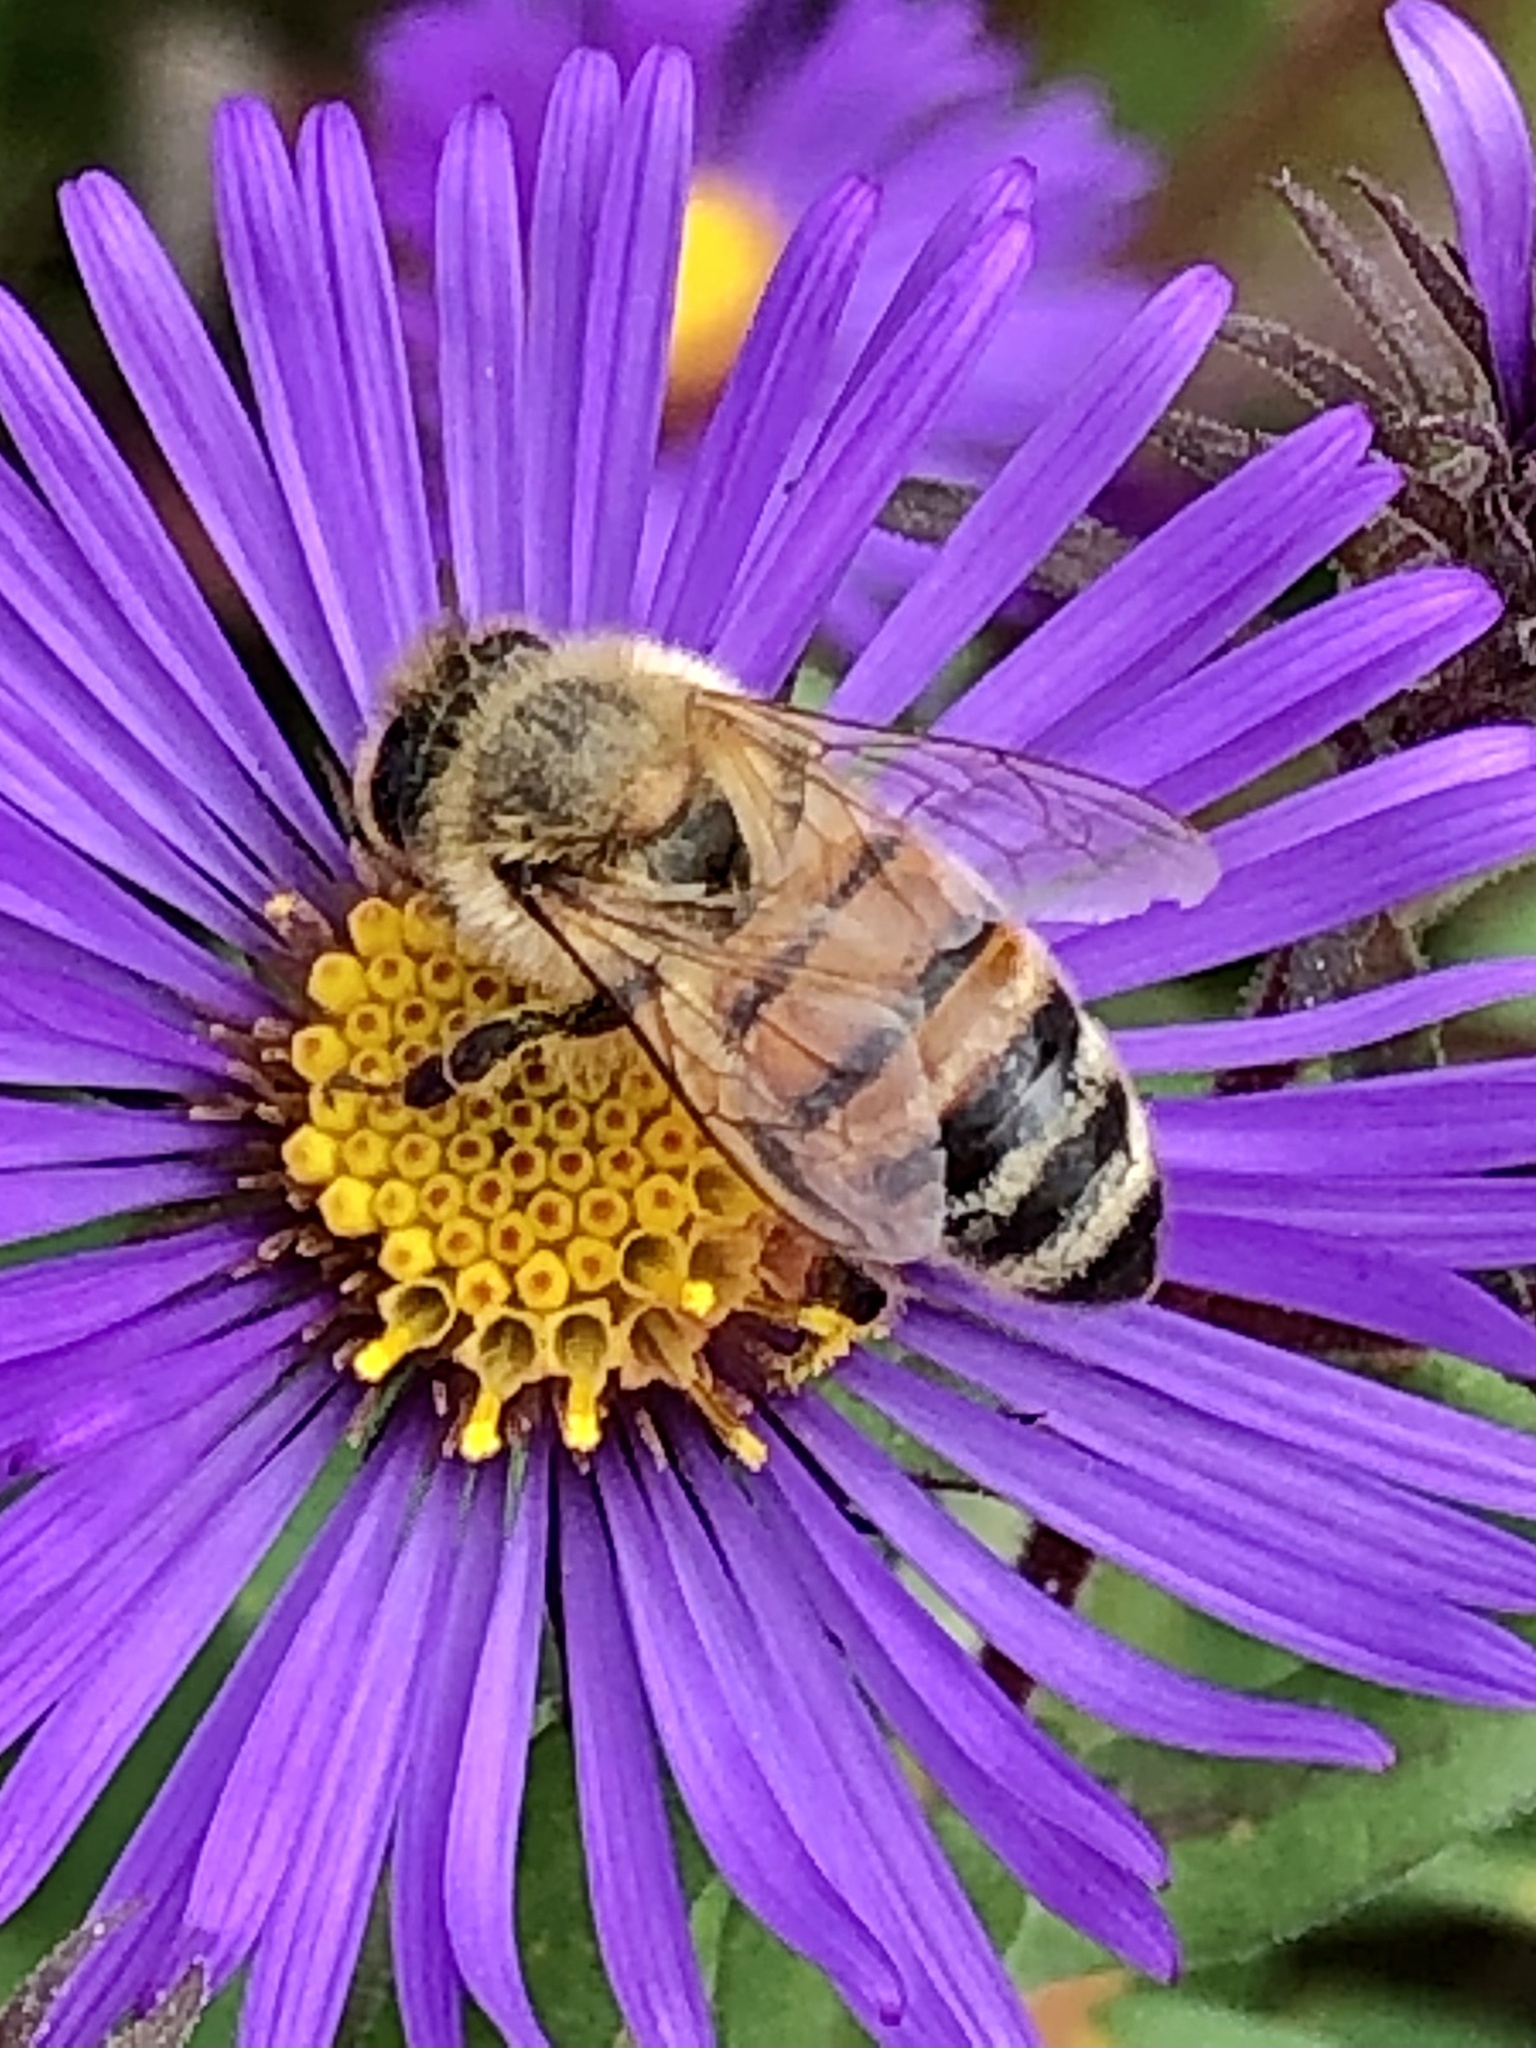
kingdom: Animalia
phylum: Arthropoda
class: Insecta
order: Hymenoptera
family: Apidae
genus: Apis
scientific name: Apis mellifera
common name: Honey bee
